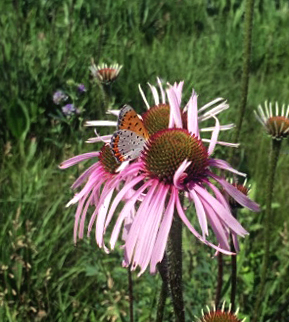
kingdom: Animalia
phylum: Arthropoda
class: Insecta
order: Lepidoptera
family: Lycaenidae
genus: Tharsalea
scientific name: Tharsalea hyllus
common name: Bronze copper
